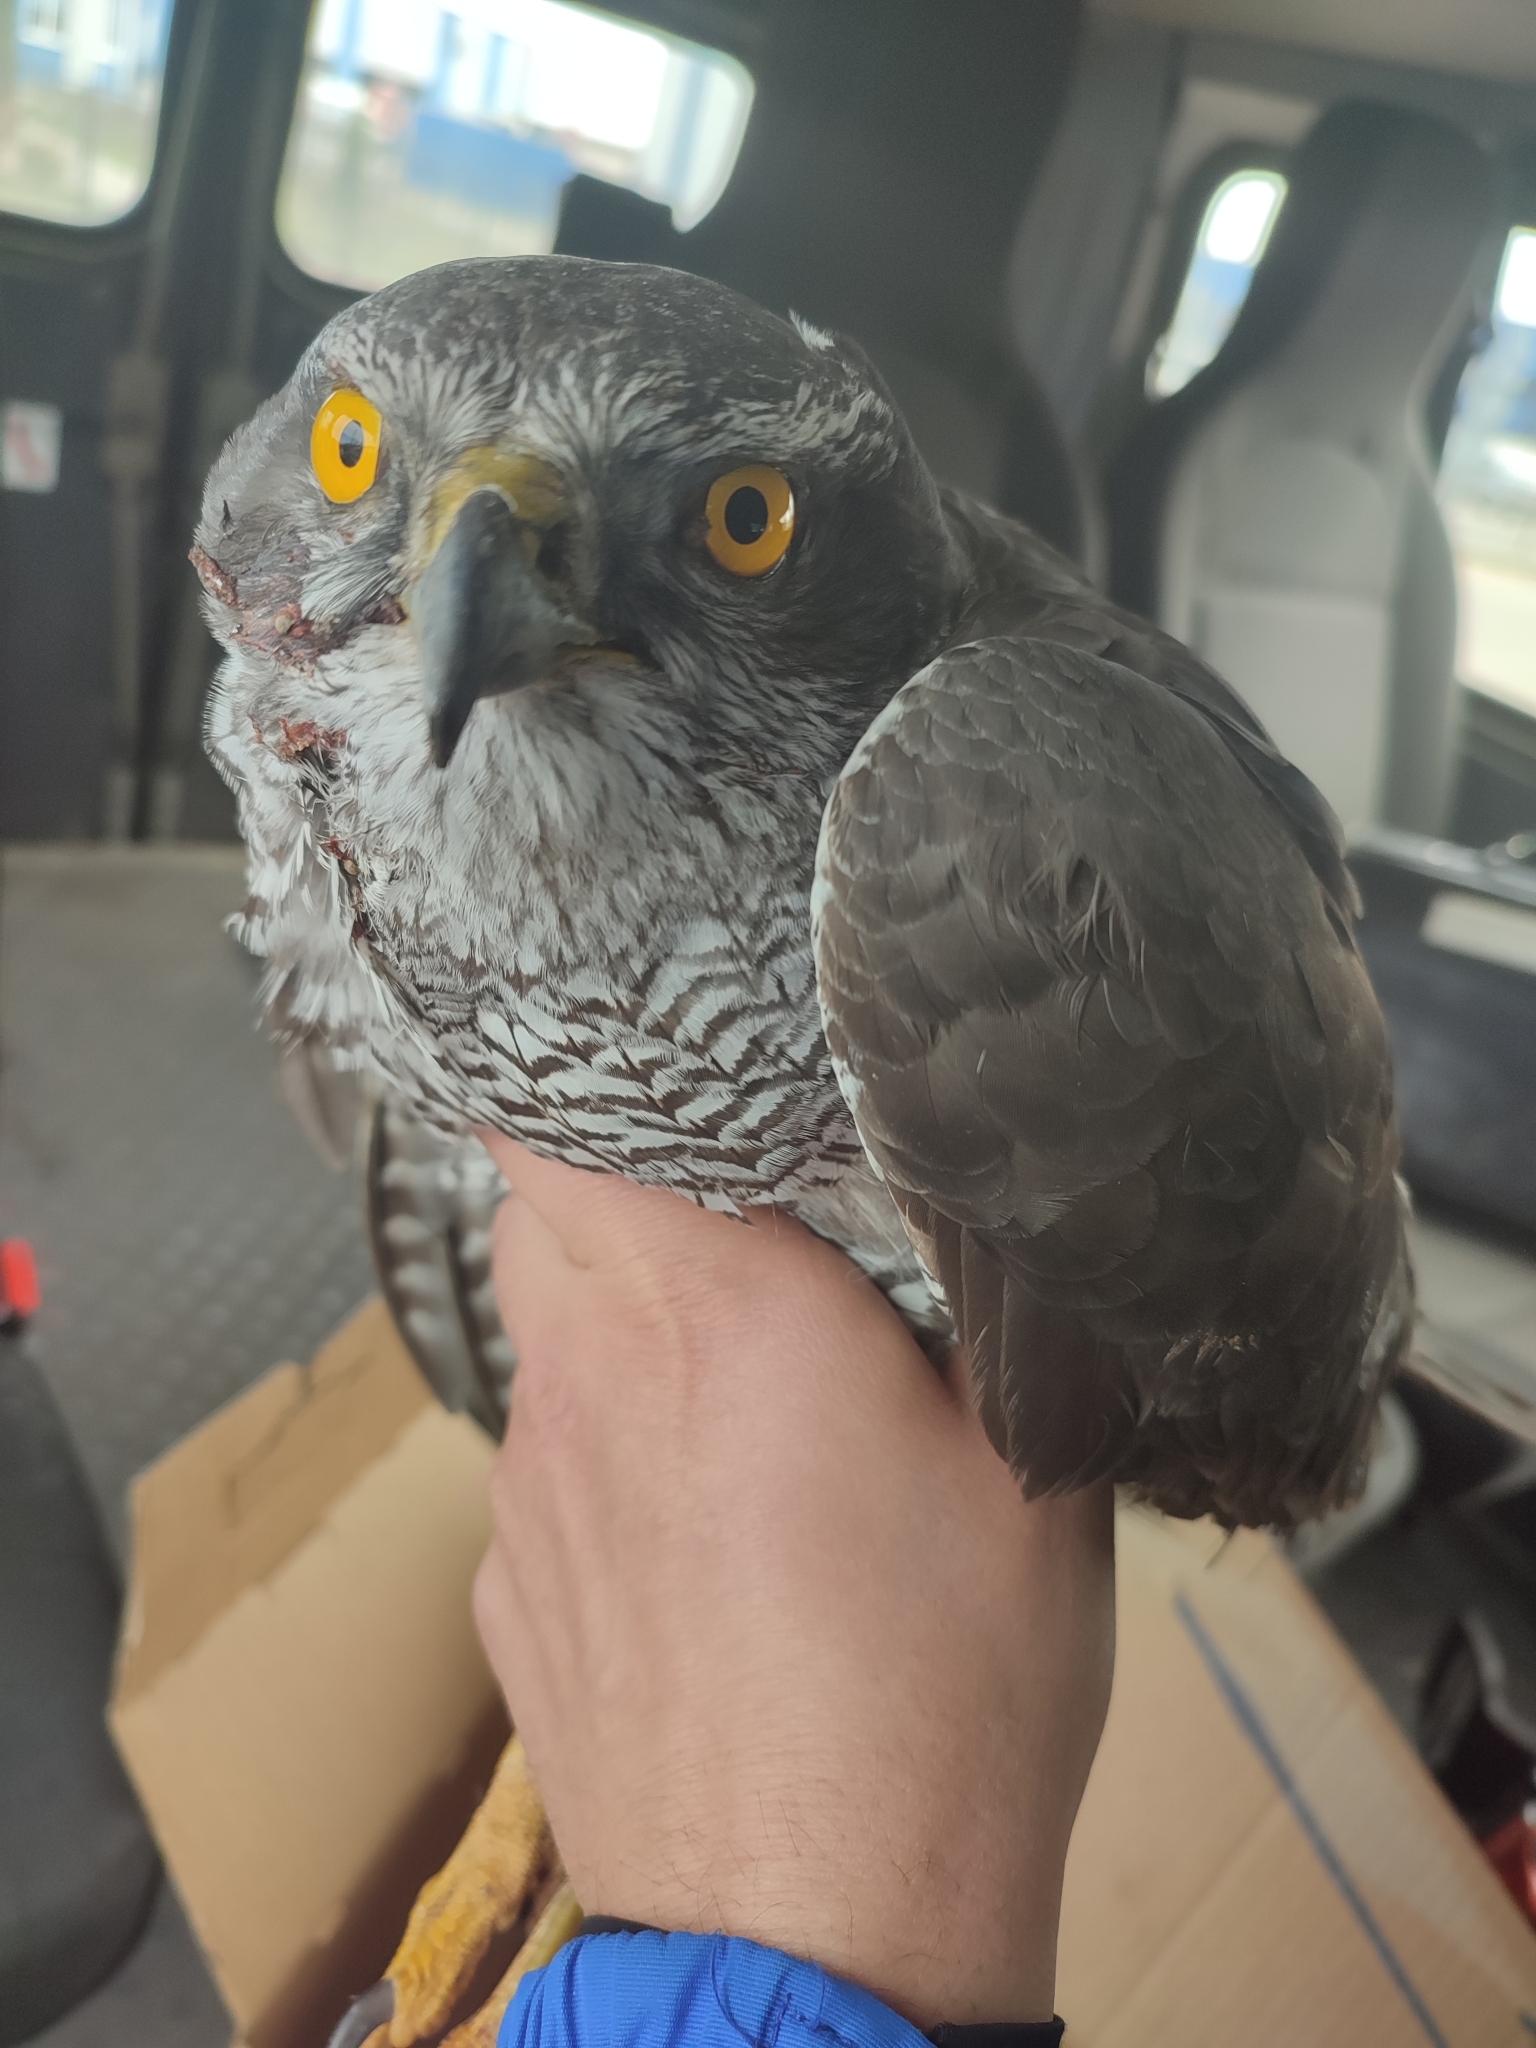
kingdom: Animalia
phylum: Chordata
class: Aves
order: Accipitriformes
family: Accipitridae
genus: Accipiter
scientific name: Accipiter gentilis
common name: Northern goshawk
